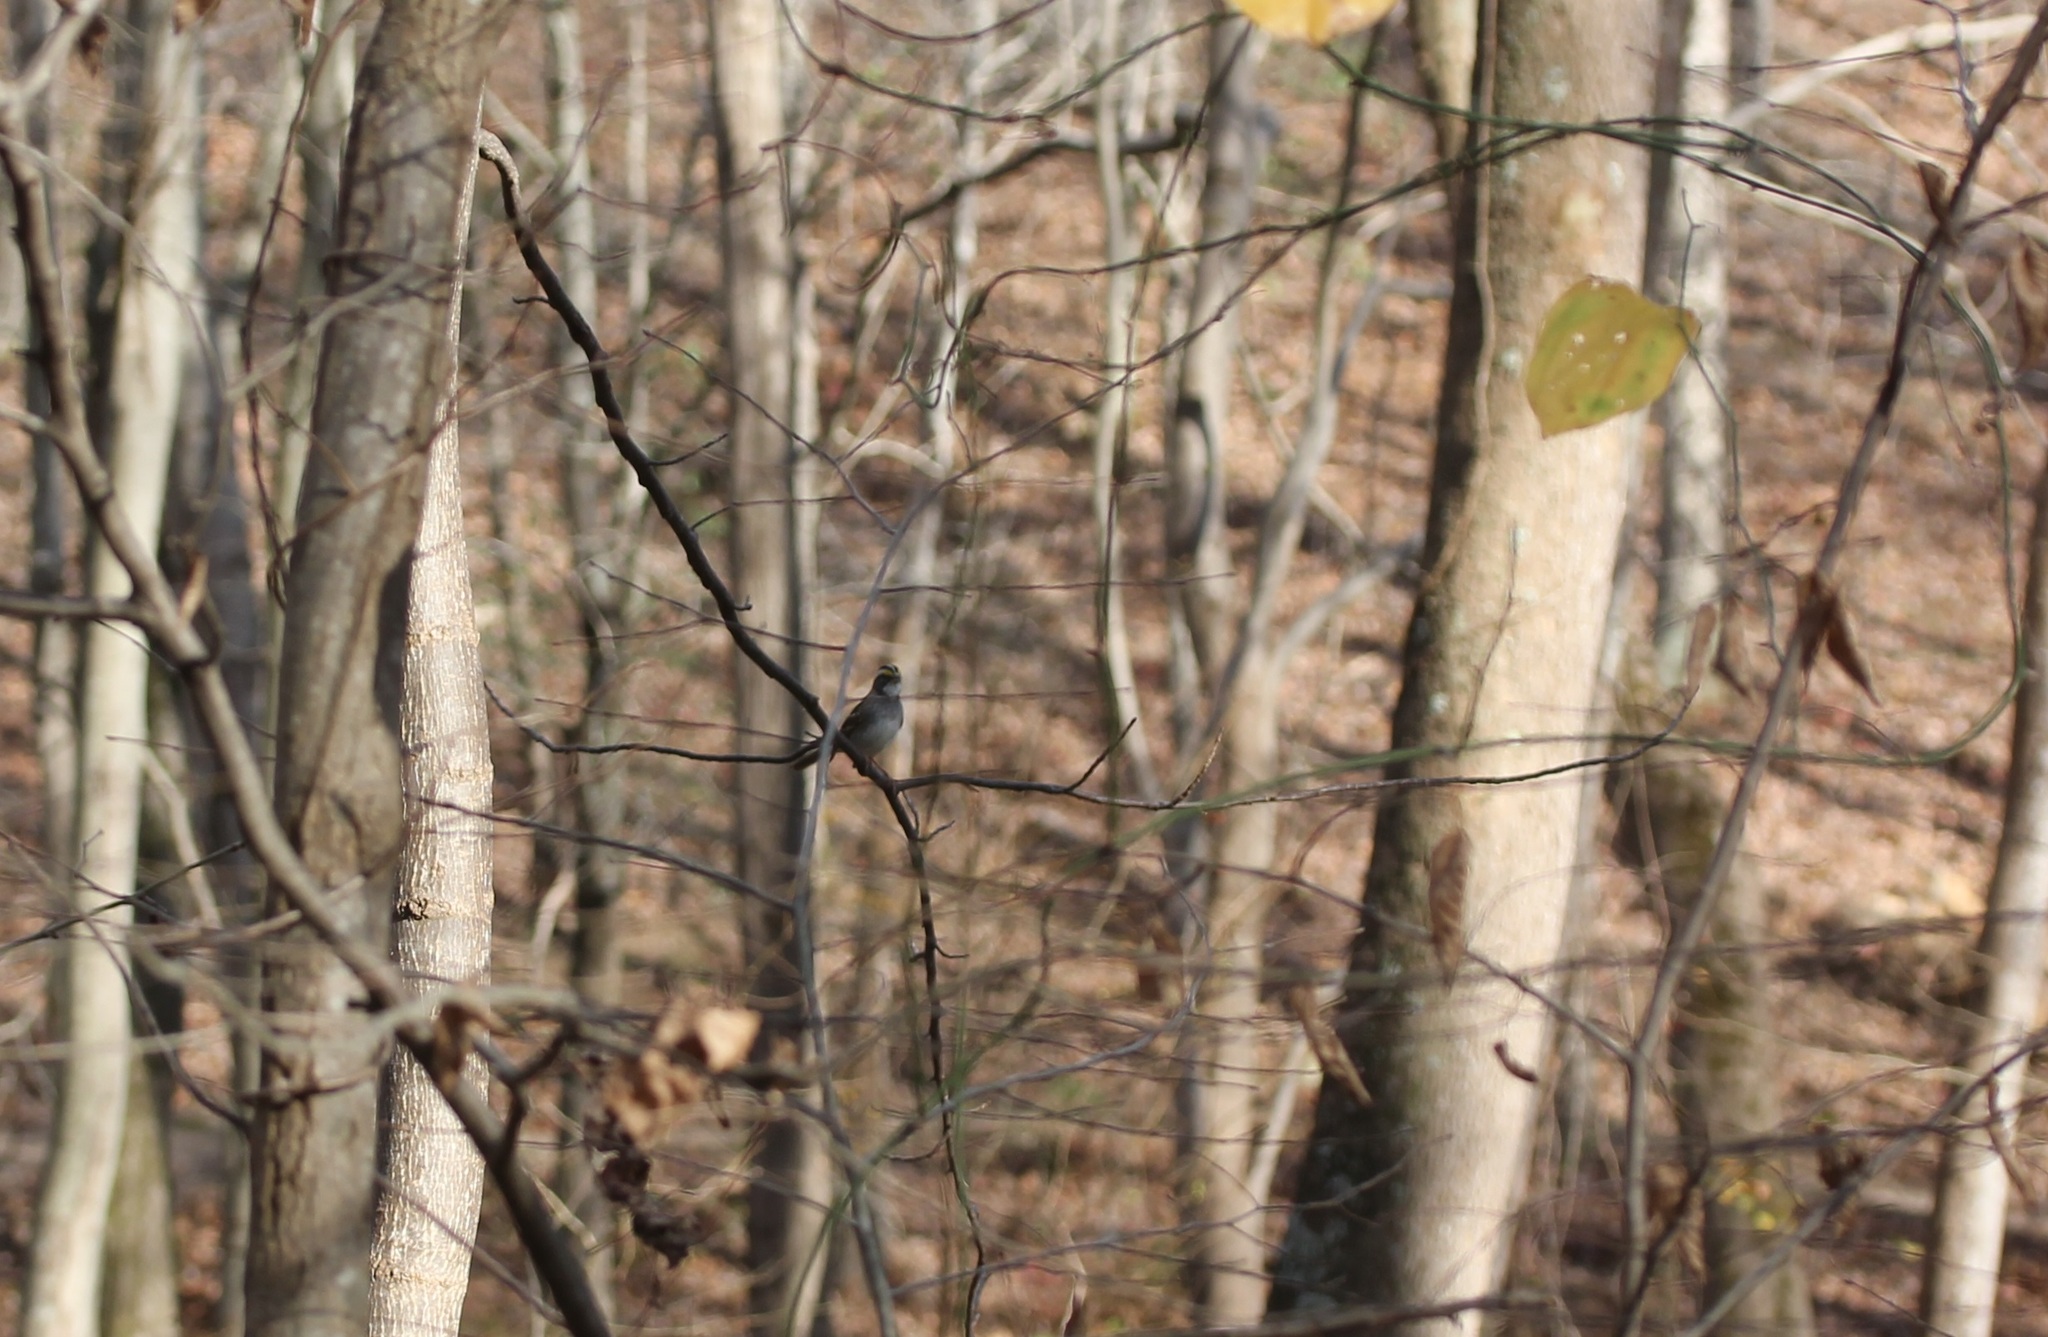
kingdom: Animalia
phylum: Chordata
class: Aves
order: Passeriformes
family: Passerellidae
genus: Zonotrichia
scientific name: Zonotrichia albicollis
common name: White-throated sparrow
